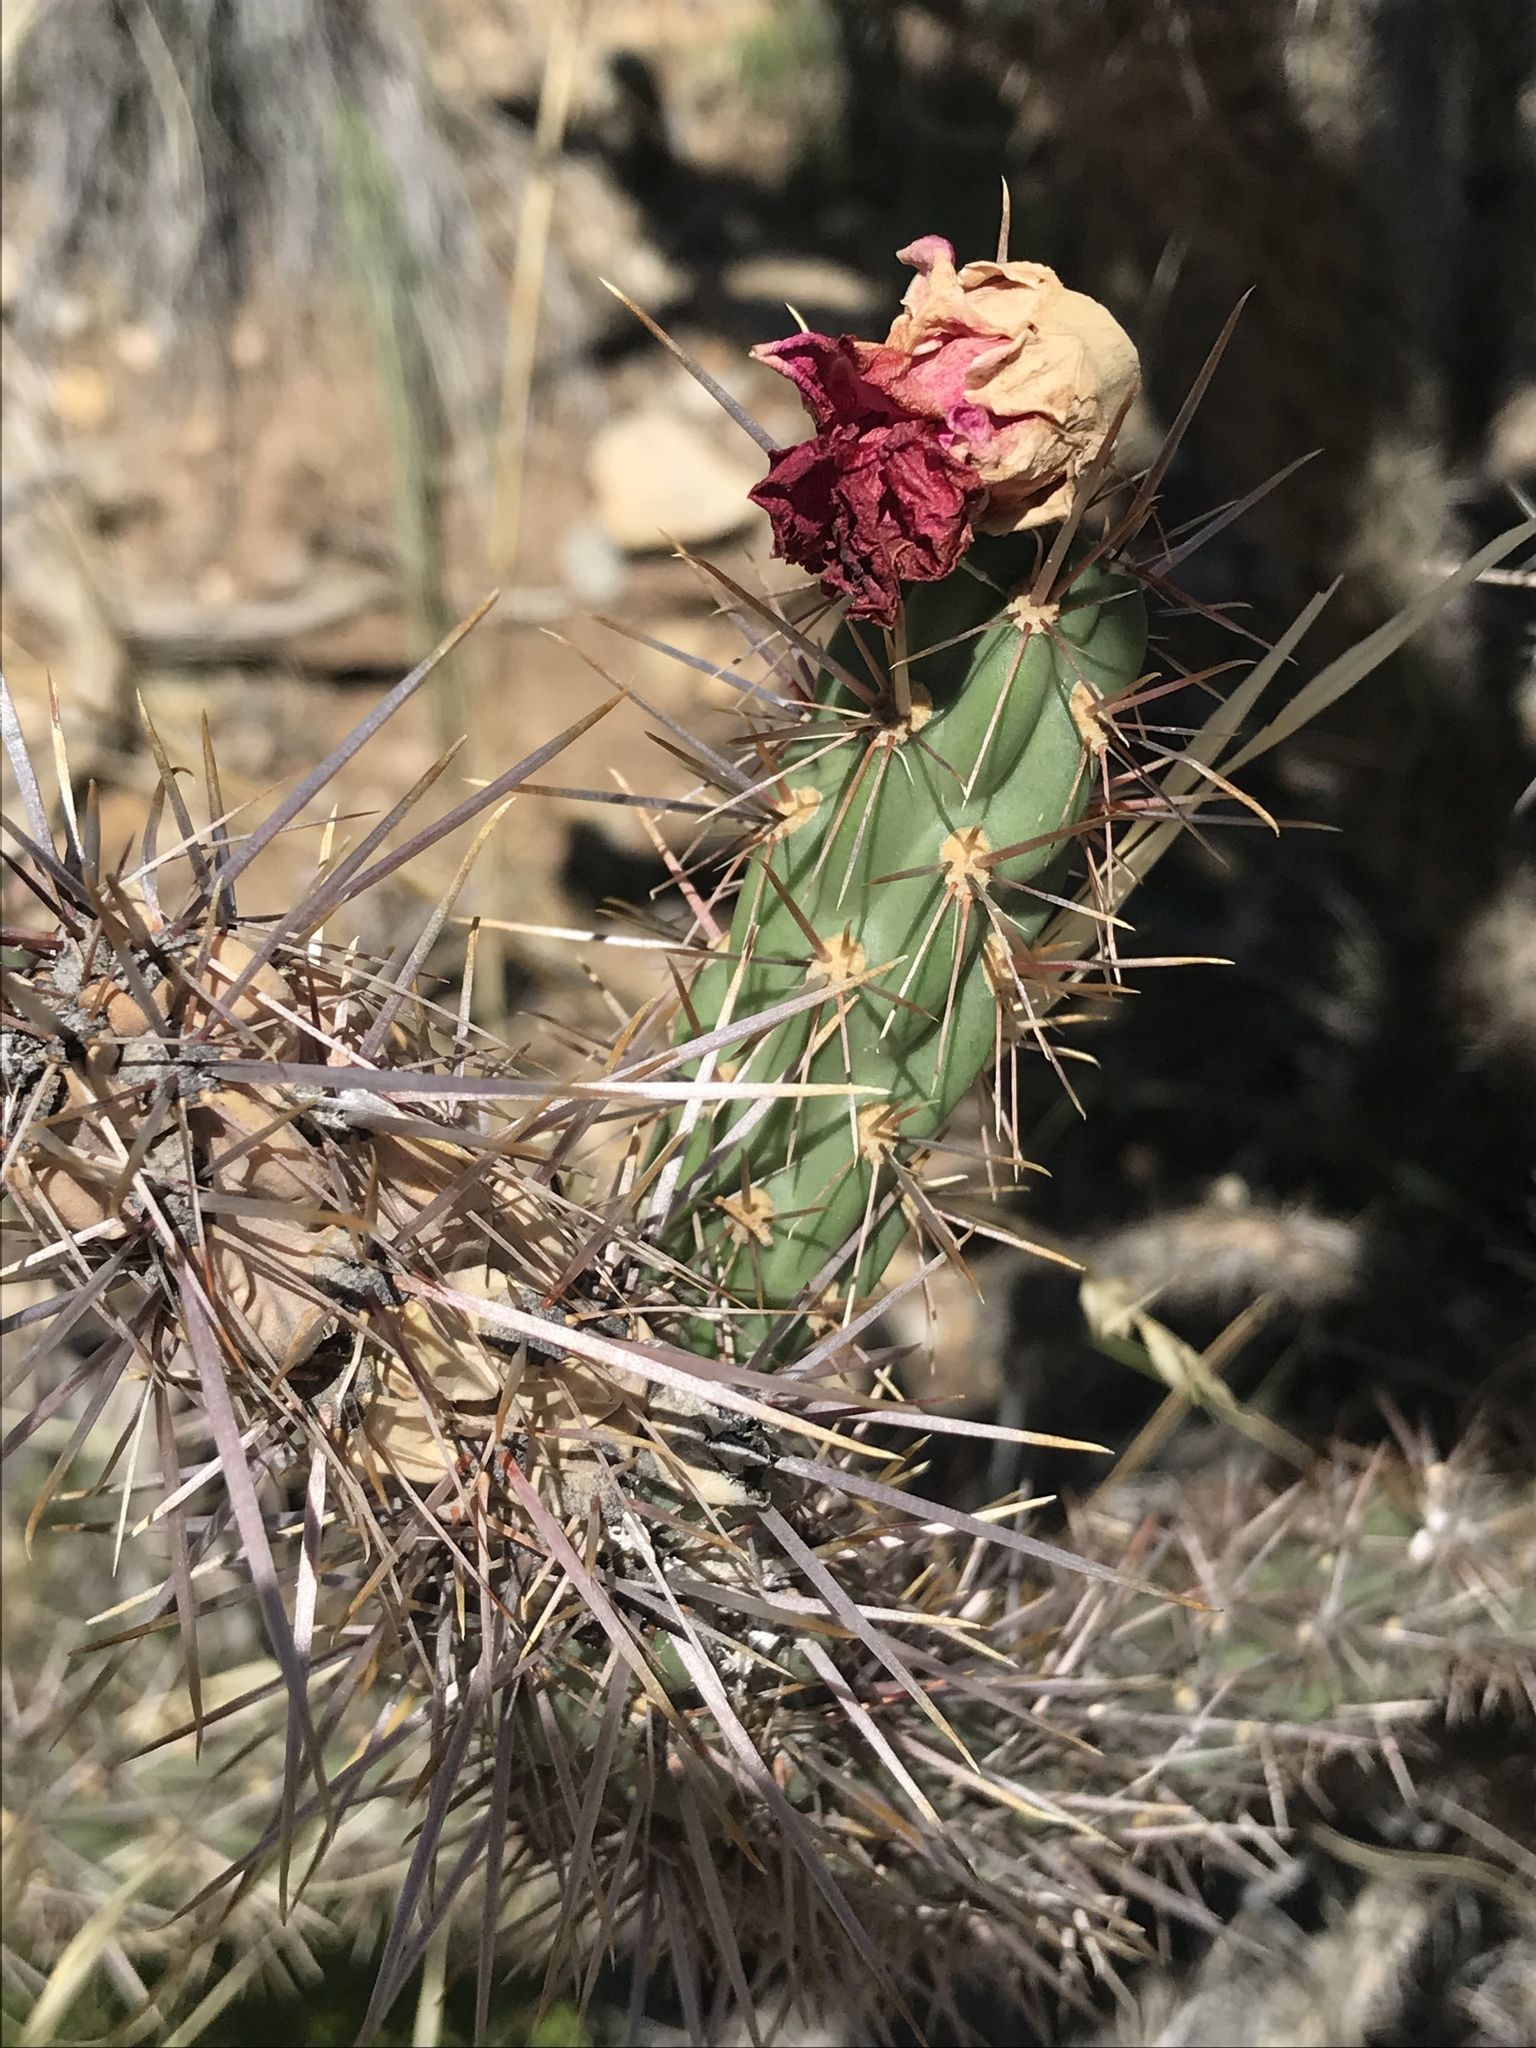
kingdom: Plantae
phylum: Tracheophyta
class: Magnoliopsida
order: Caryophyllales
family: Cactaceae
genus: Cylindropuntia
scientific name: Cylindropuntia imbricata
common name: Candelabrum cactus
